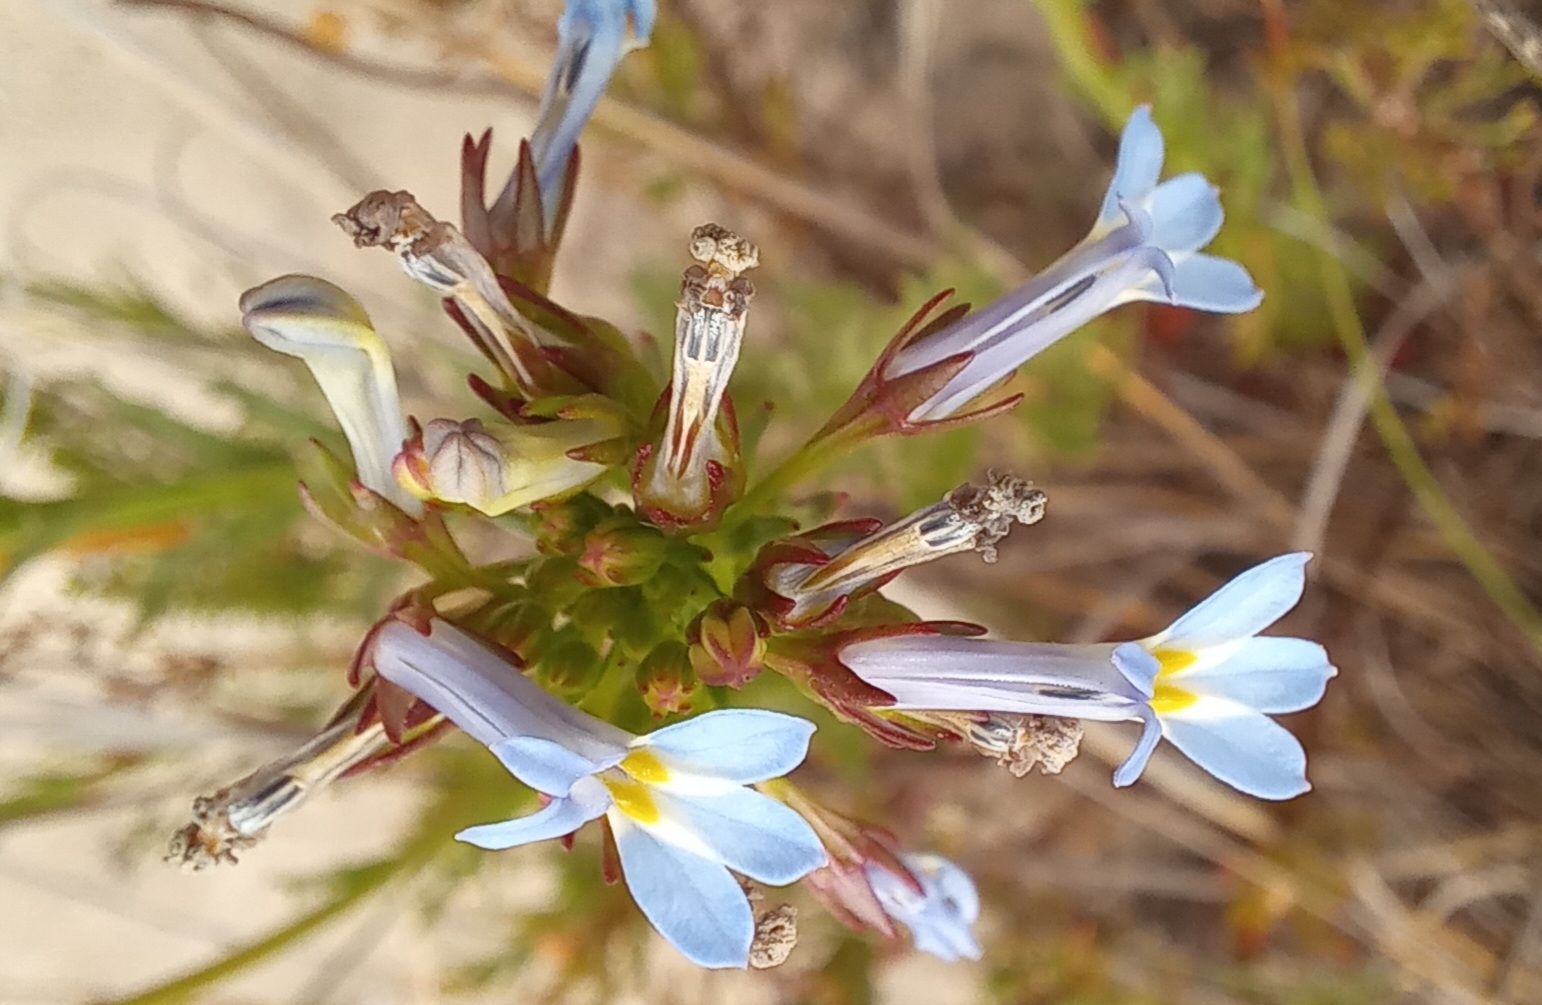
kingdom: Plantae
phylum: Tracheophyta
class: Magnoliopsida
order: Asterales
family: Campanulaceae
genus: Lobelia
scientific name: Lobelia comosa
